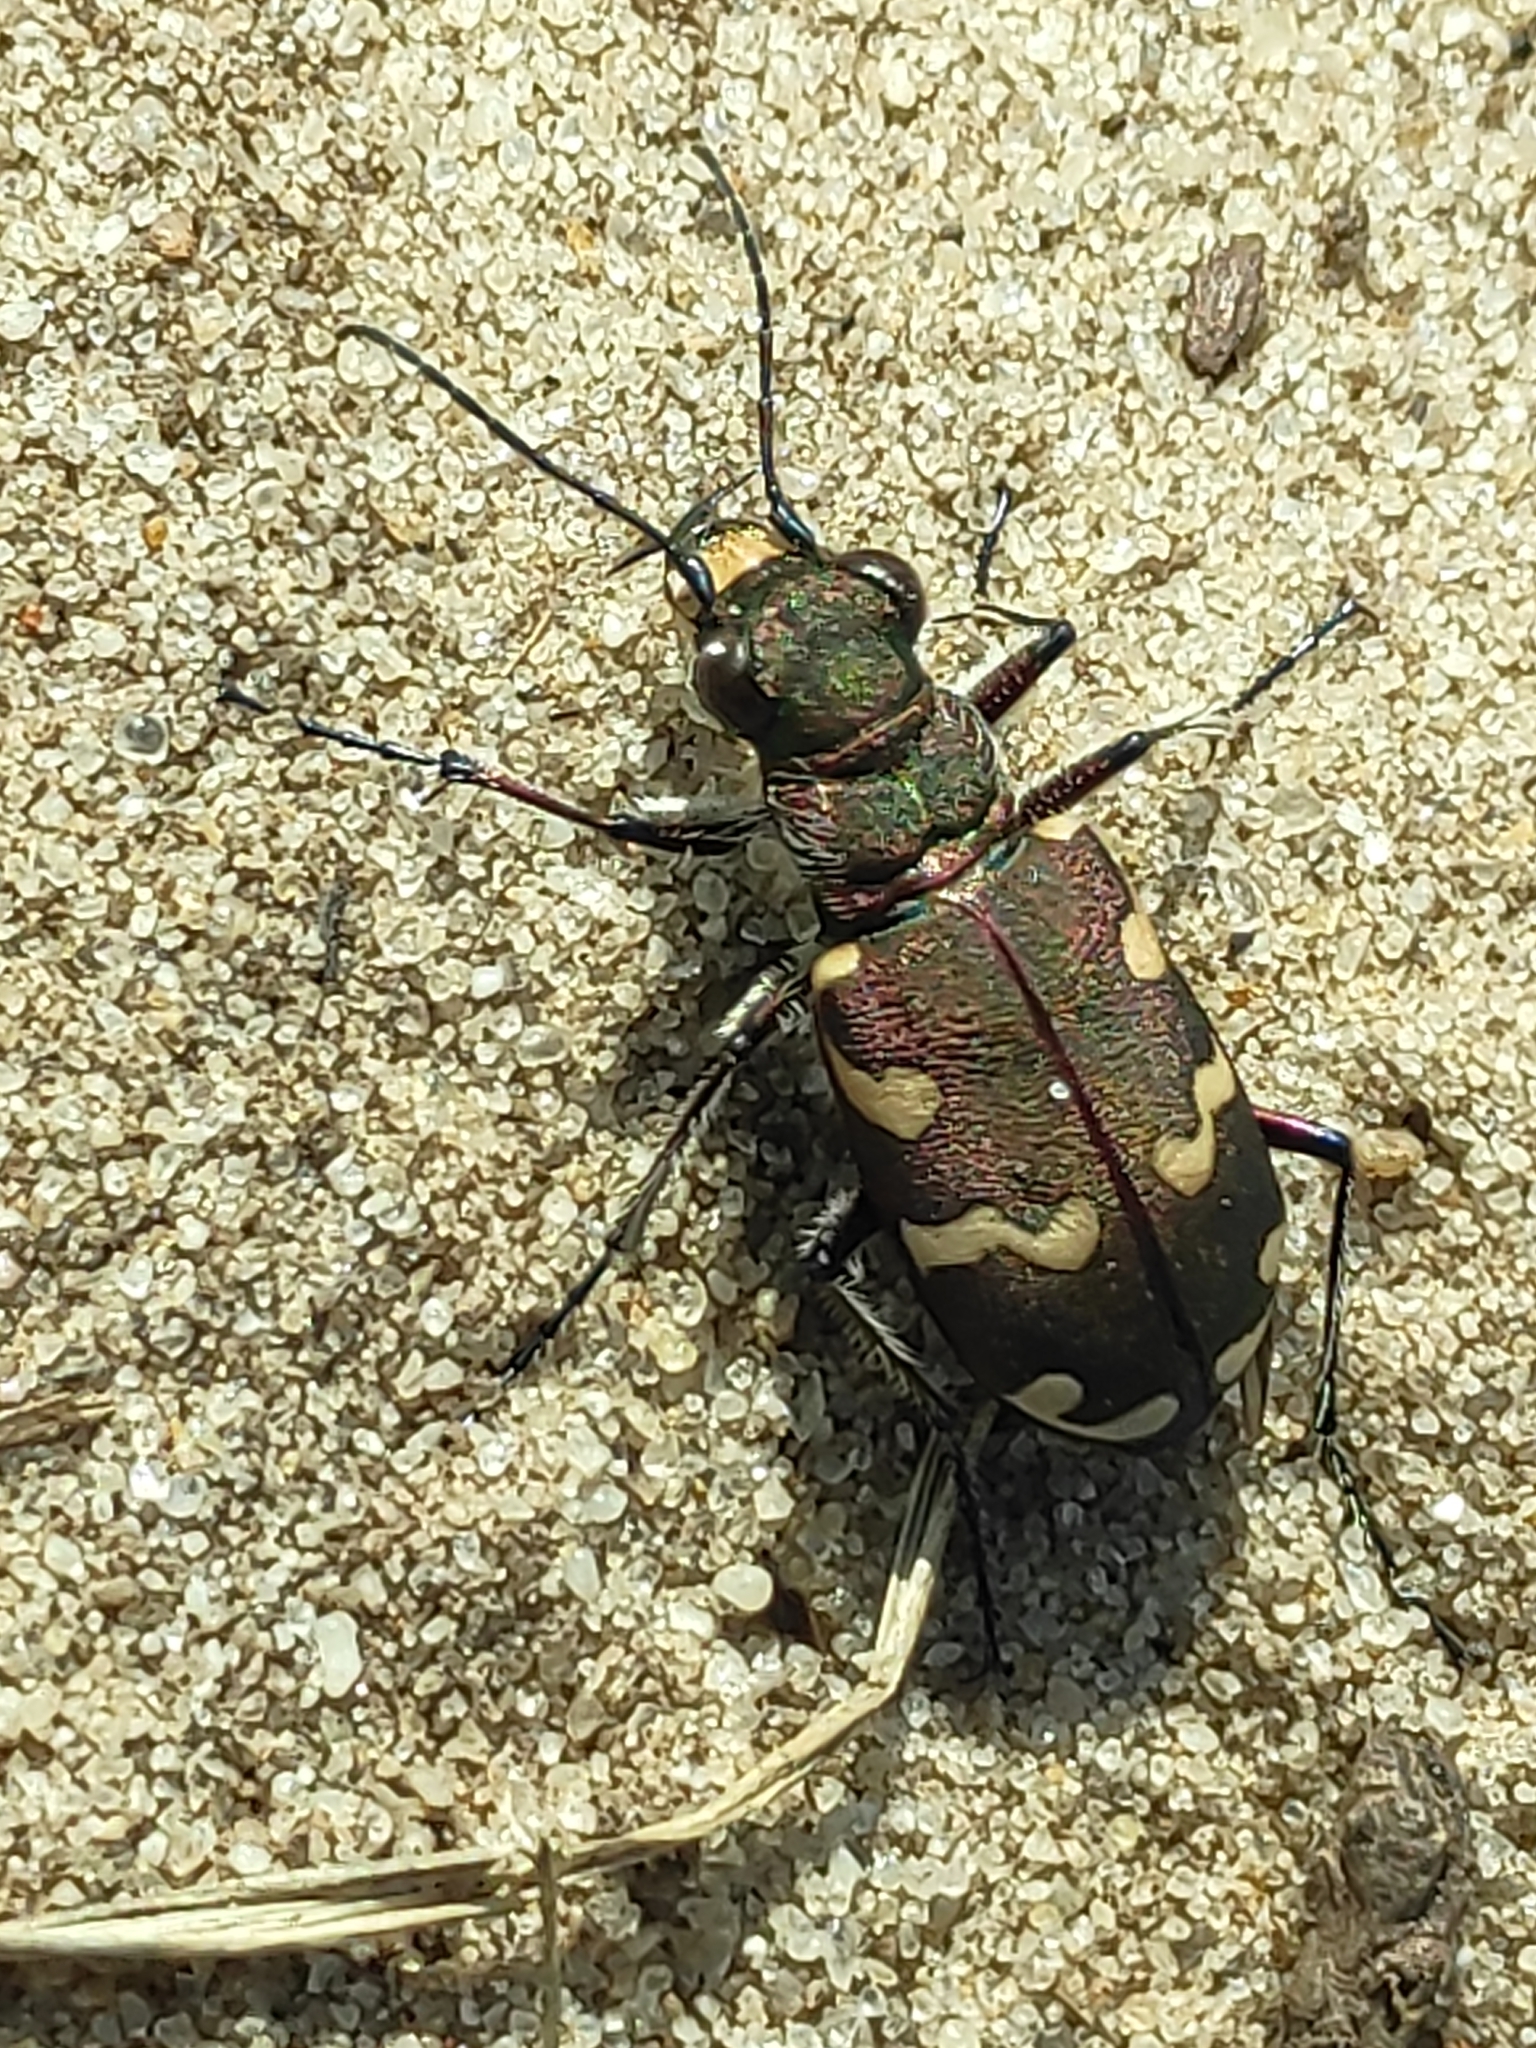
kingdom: Animalia
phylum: Arthropoda
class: Insecta
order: Coleoptera
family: Carabidae
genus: Cicindela
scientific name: Cicindela hybrida
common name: Northern dune tiger beetle
